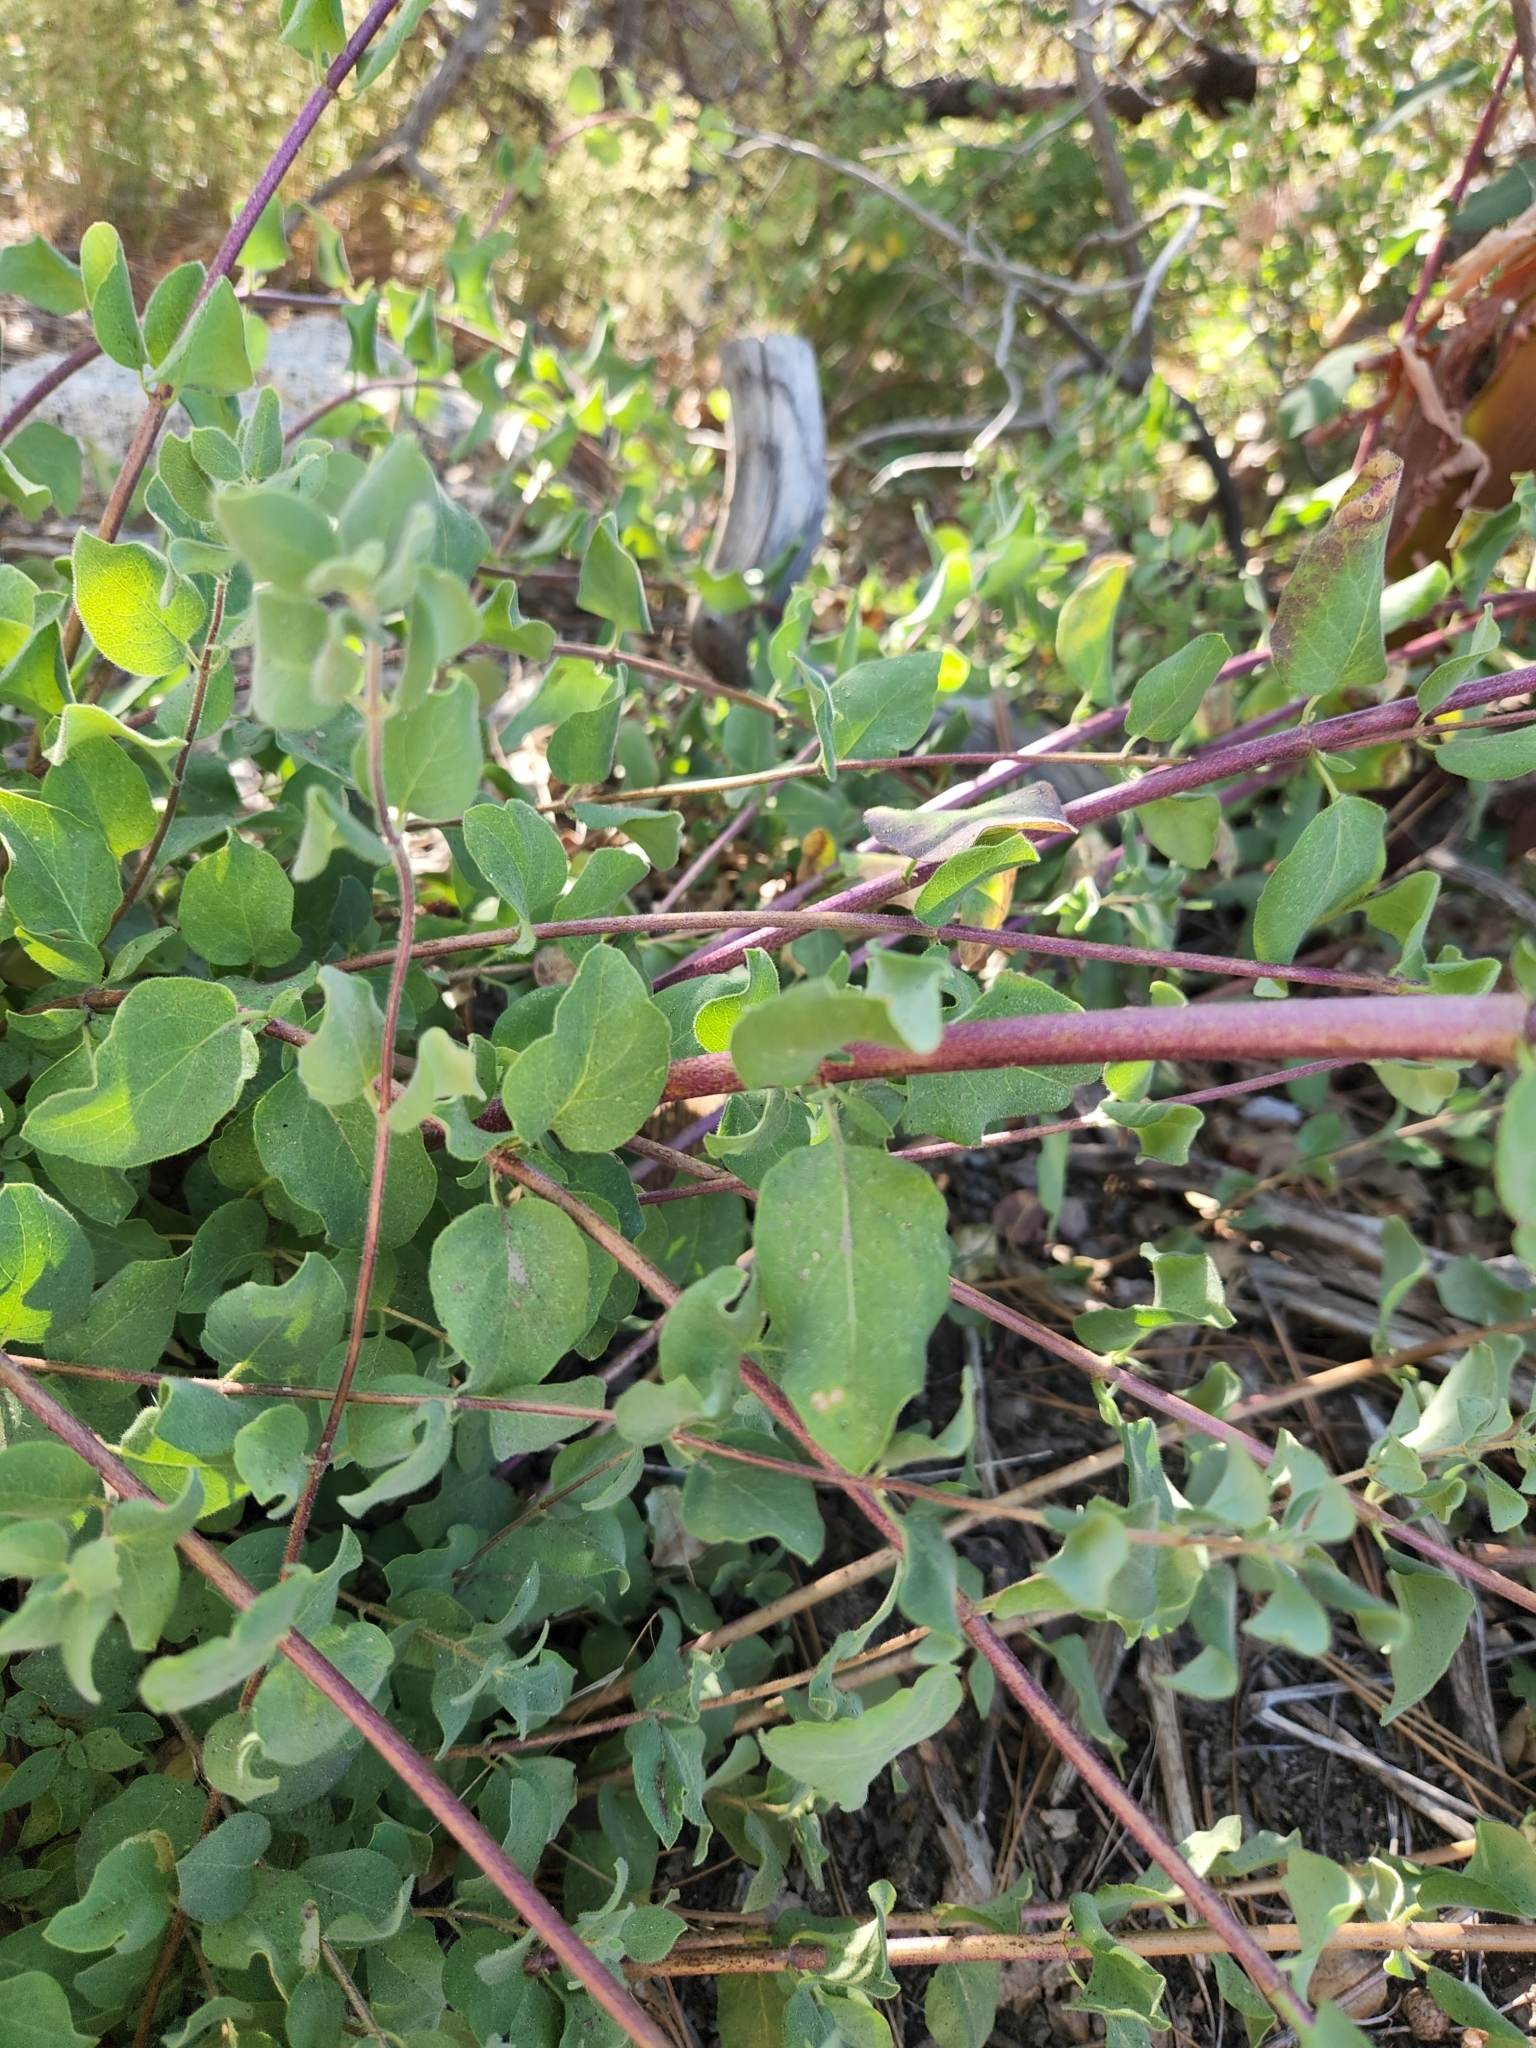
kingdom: Plantae
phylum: Tracheophyta
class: Magnoliopsida
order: Dipsacales
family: Caprifoliaceae
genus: Lonicera
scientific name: Lonicera subspicata
